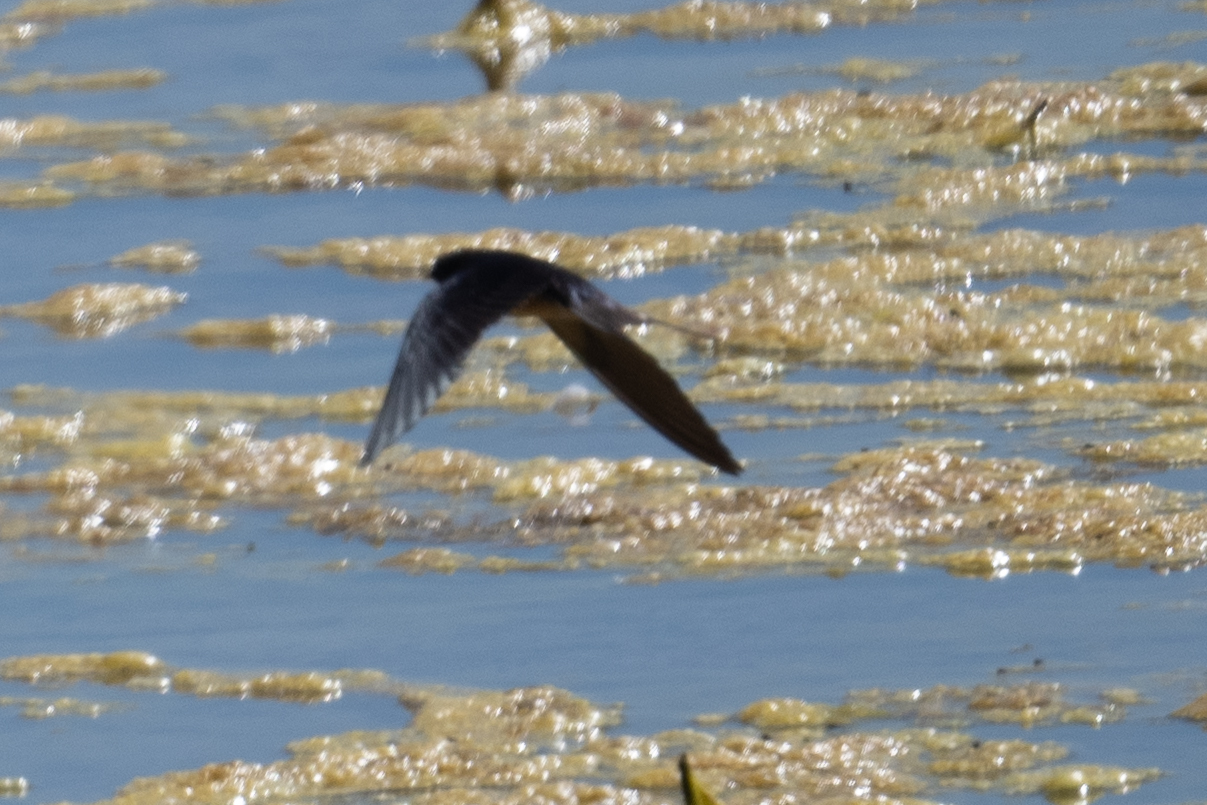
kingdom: Animalia
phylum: Chordata
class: Aves
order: Passeriformes
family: Hirundinidae
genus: Hirundo
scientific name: Hirundo rustica
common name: Barn swallow
